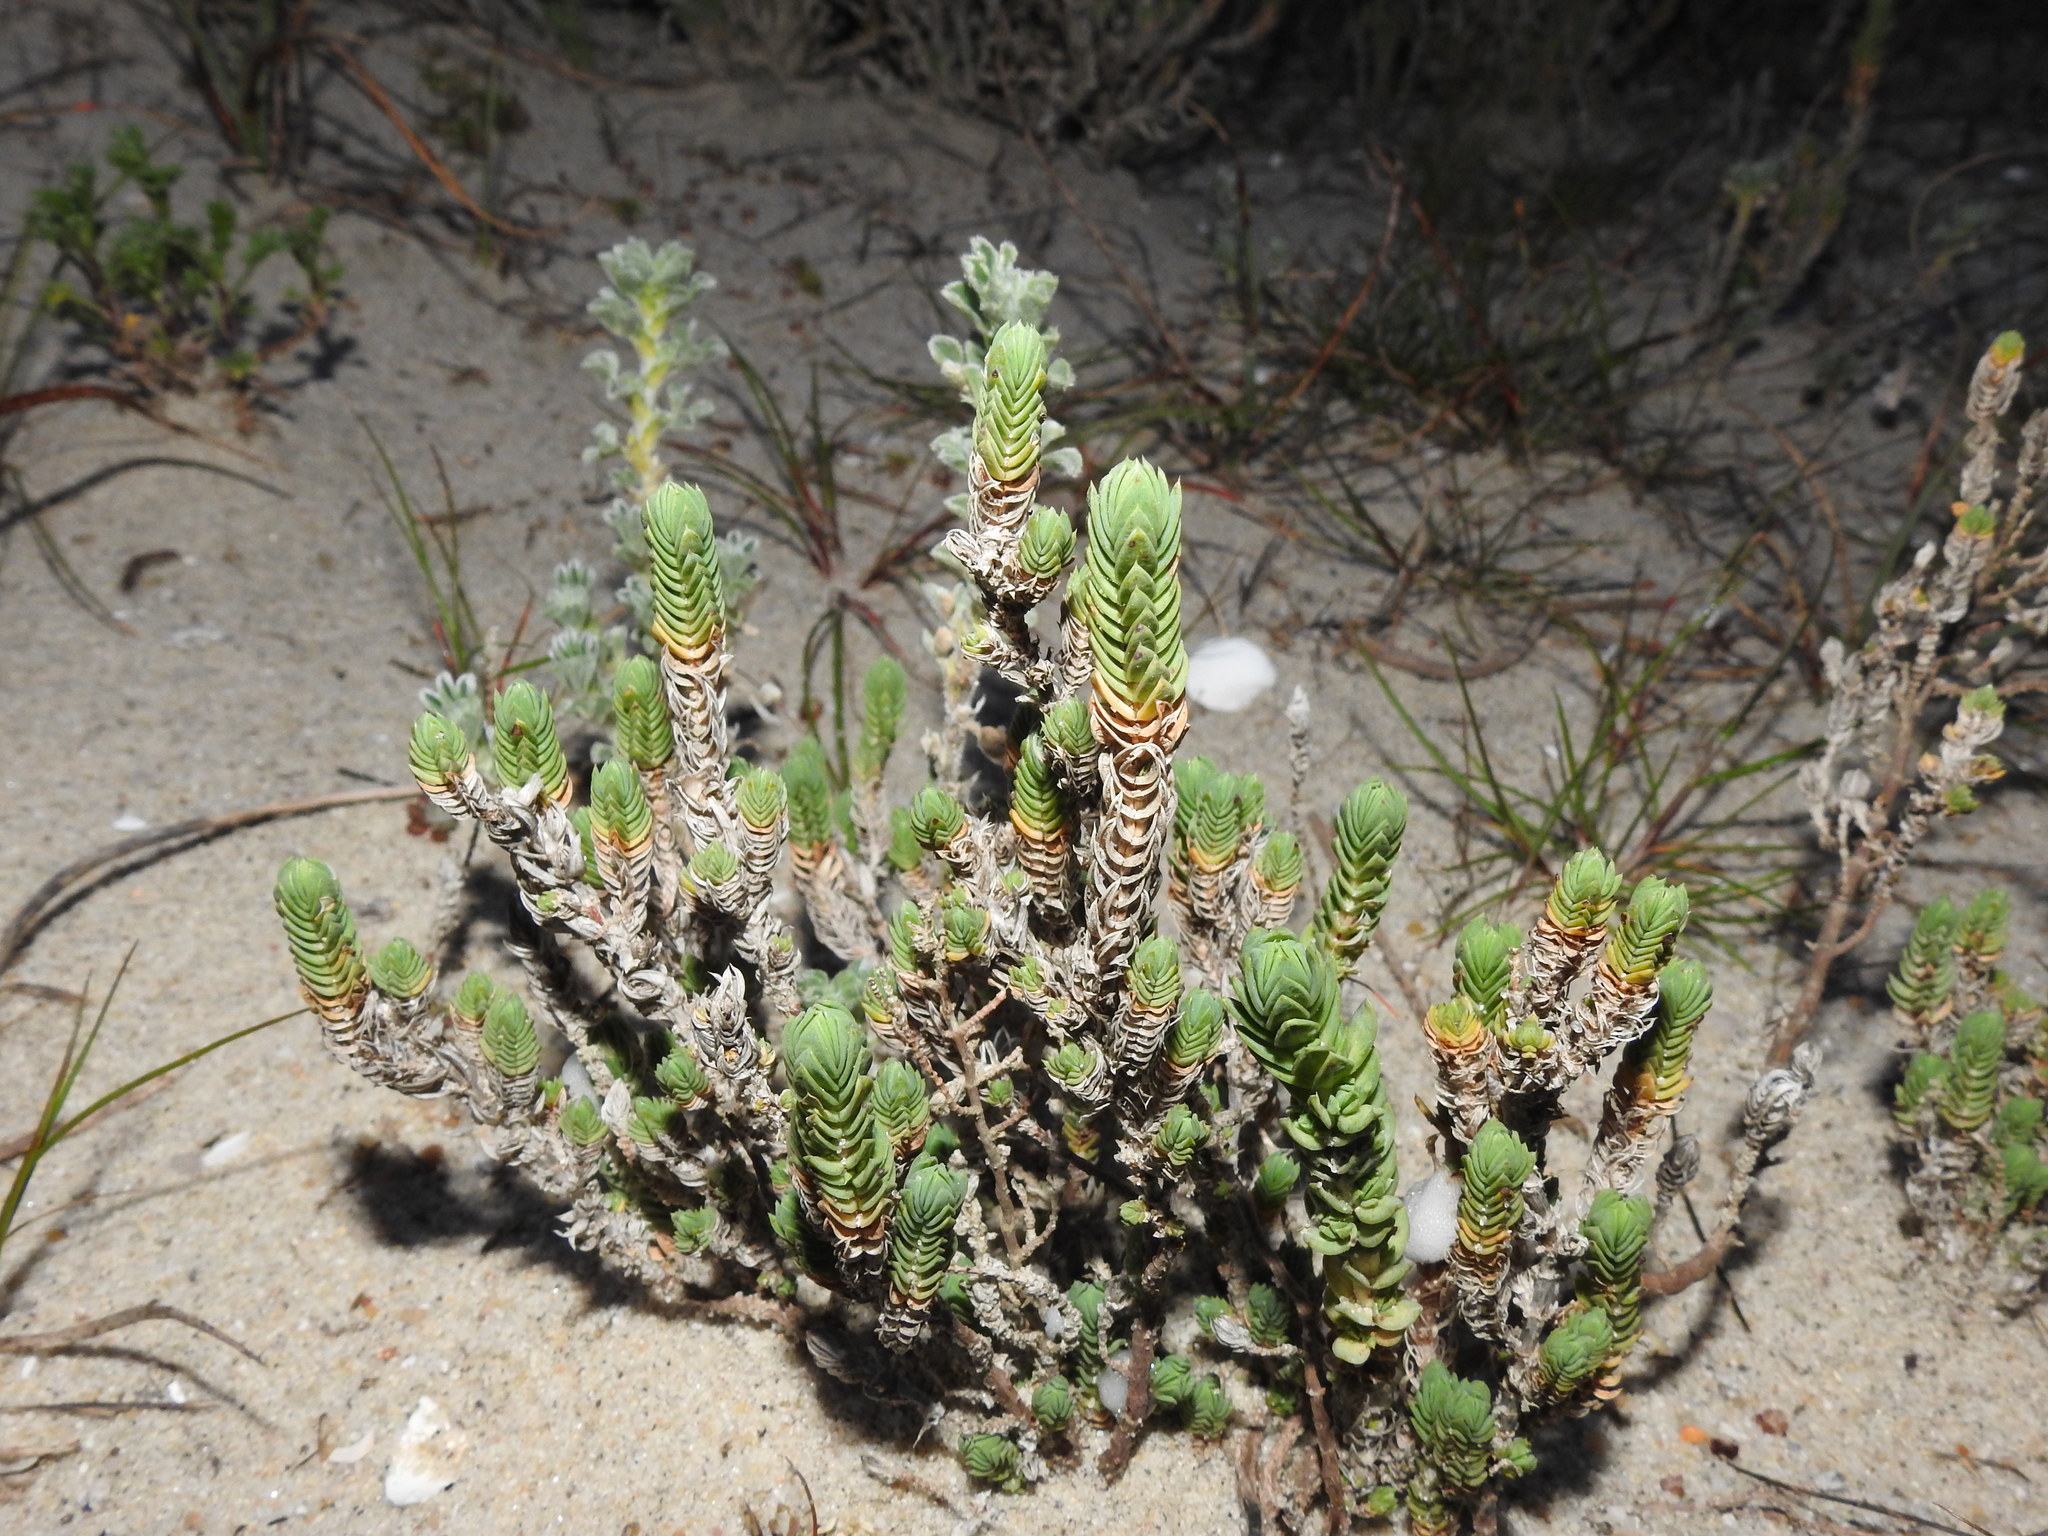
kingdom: Plantae
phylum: Tracheophyta
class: Magnoliopsida
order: Gentianales
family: Rubiaceae
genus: Crucianella
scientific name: Crucianella maritima
